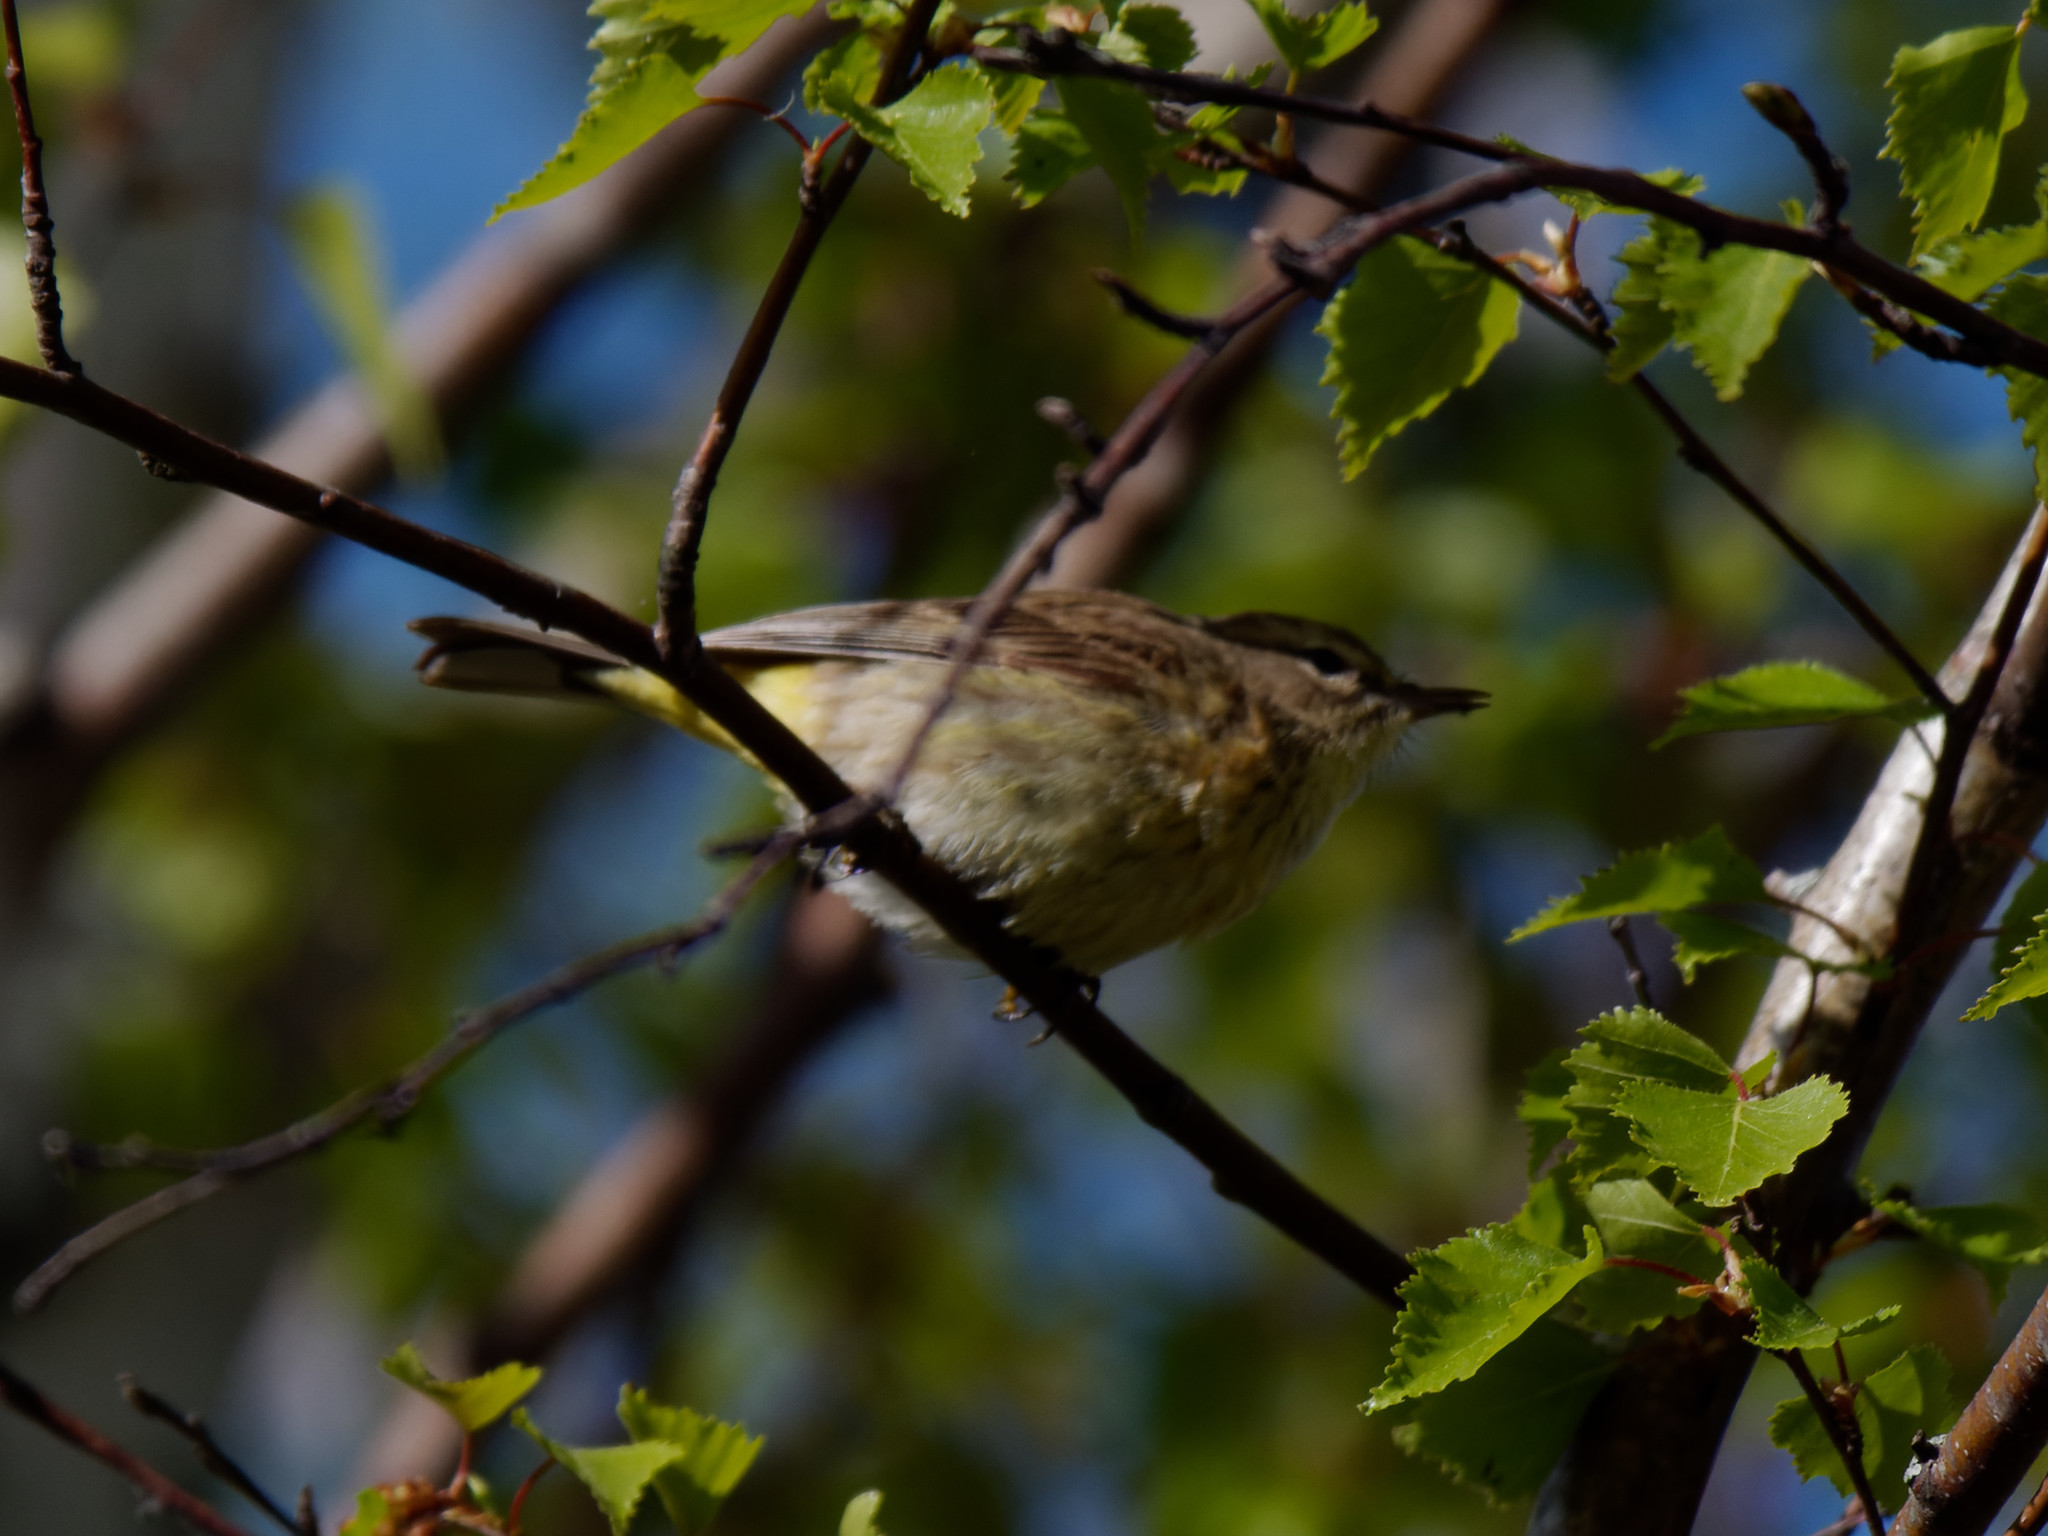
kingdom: Animalia
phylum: Chordata
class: Aves
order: Passeriformes
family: Parulidae
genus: Setophaga
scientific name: Setophaga palmarum
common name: Palm warbler
